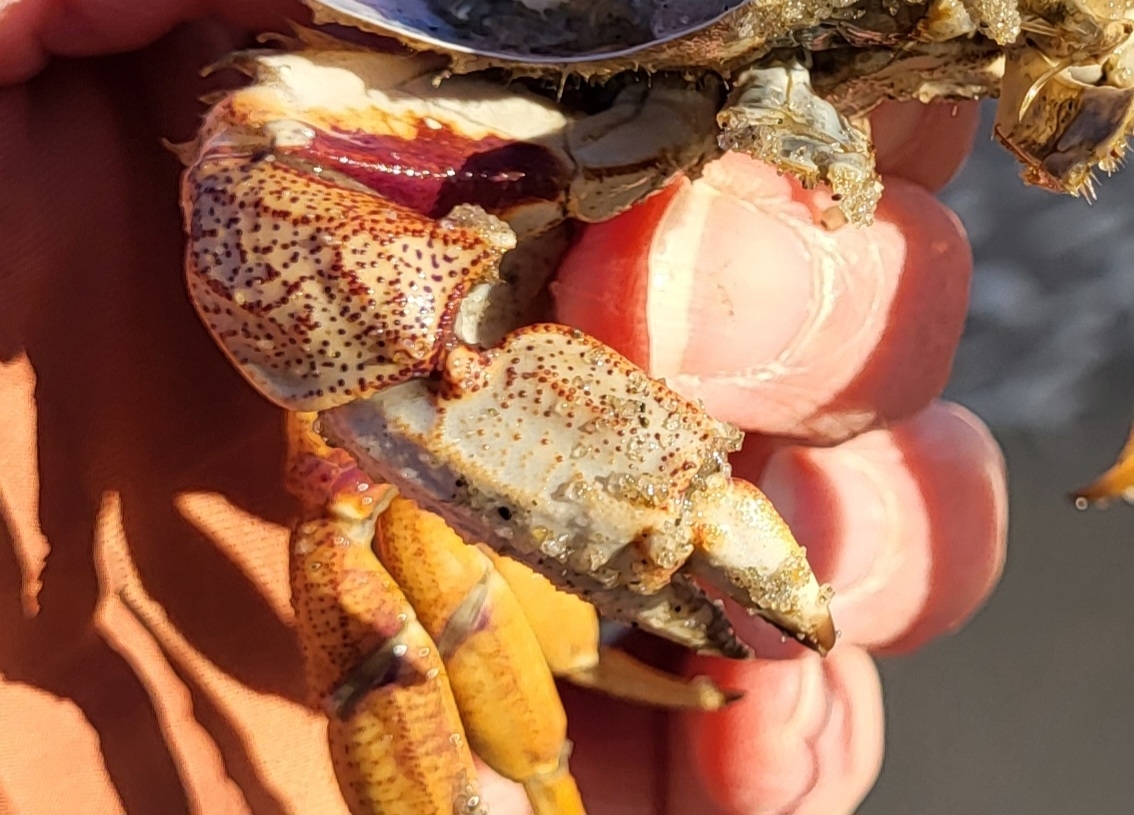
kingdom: Animalia
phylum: Arthropoda
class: Malacostraca
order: Decapoda
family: Cancridae
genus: Cancer
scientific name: Cancer irroratus
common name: Atlantic rock crab
